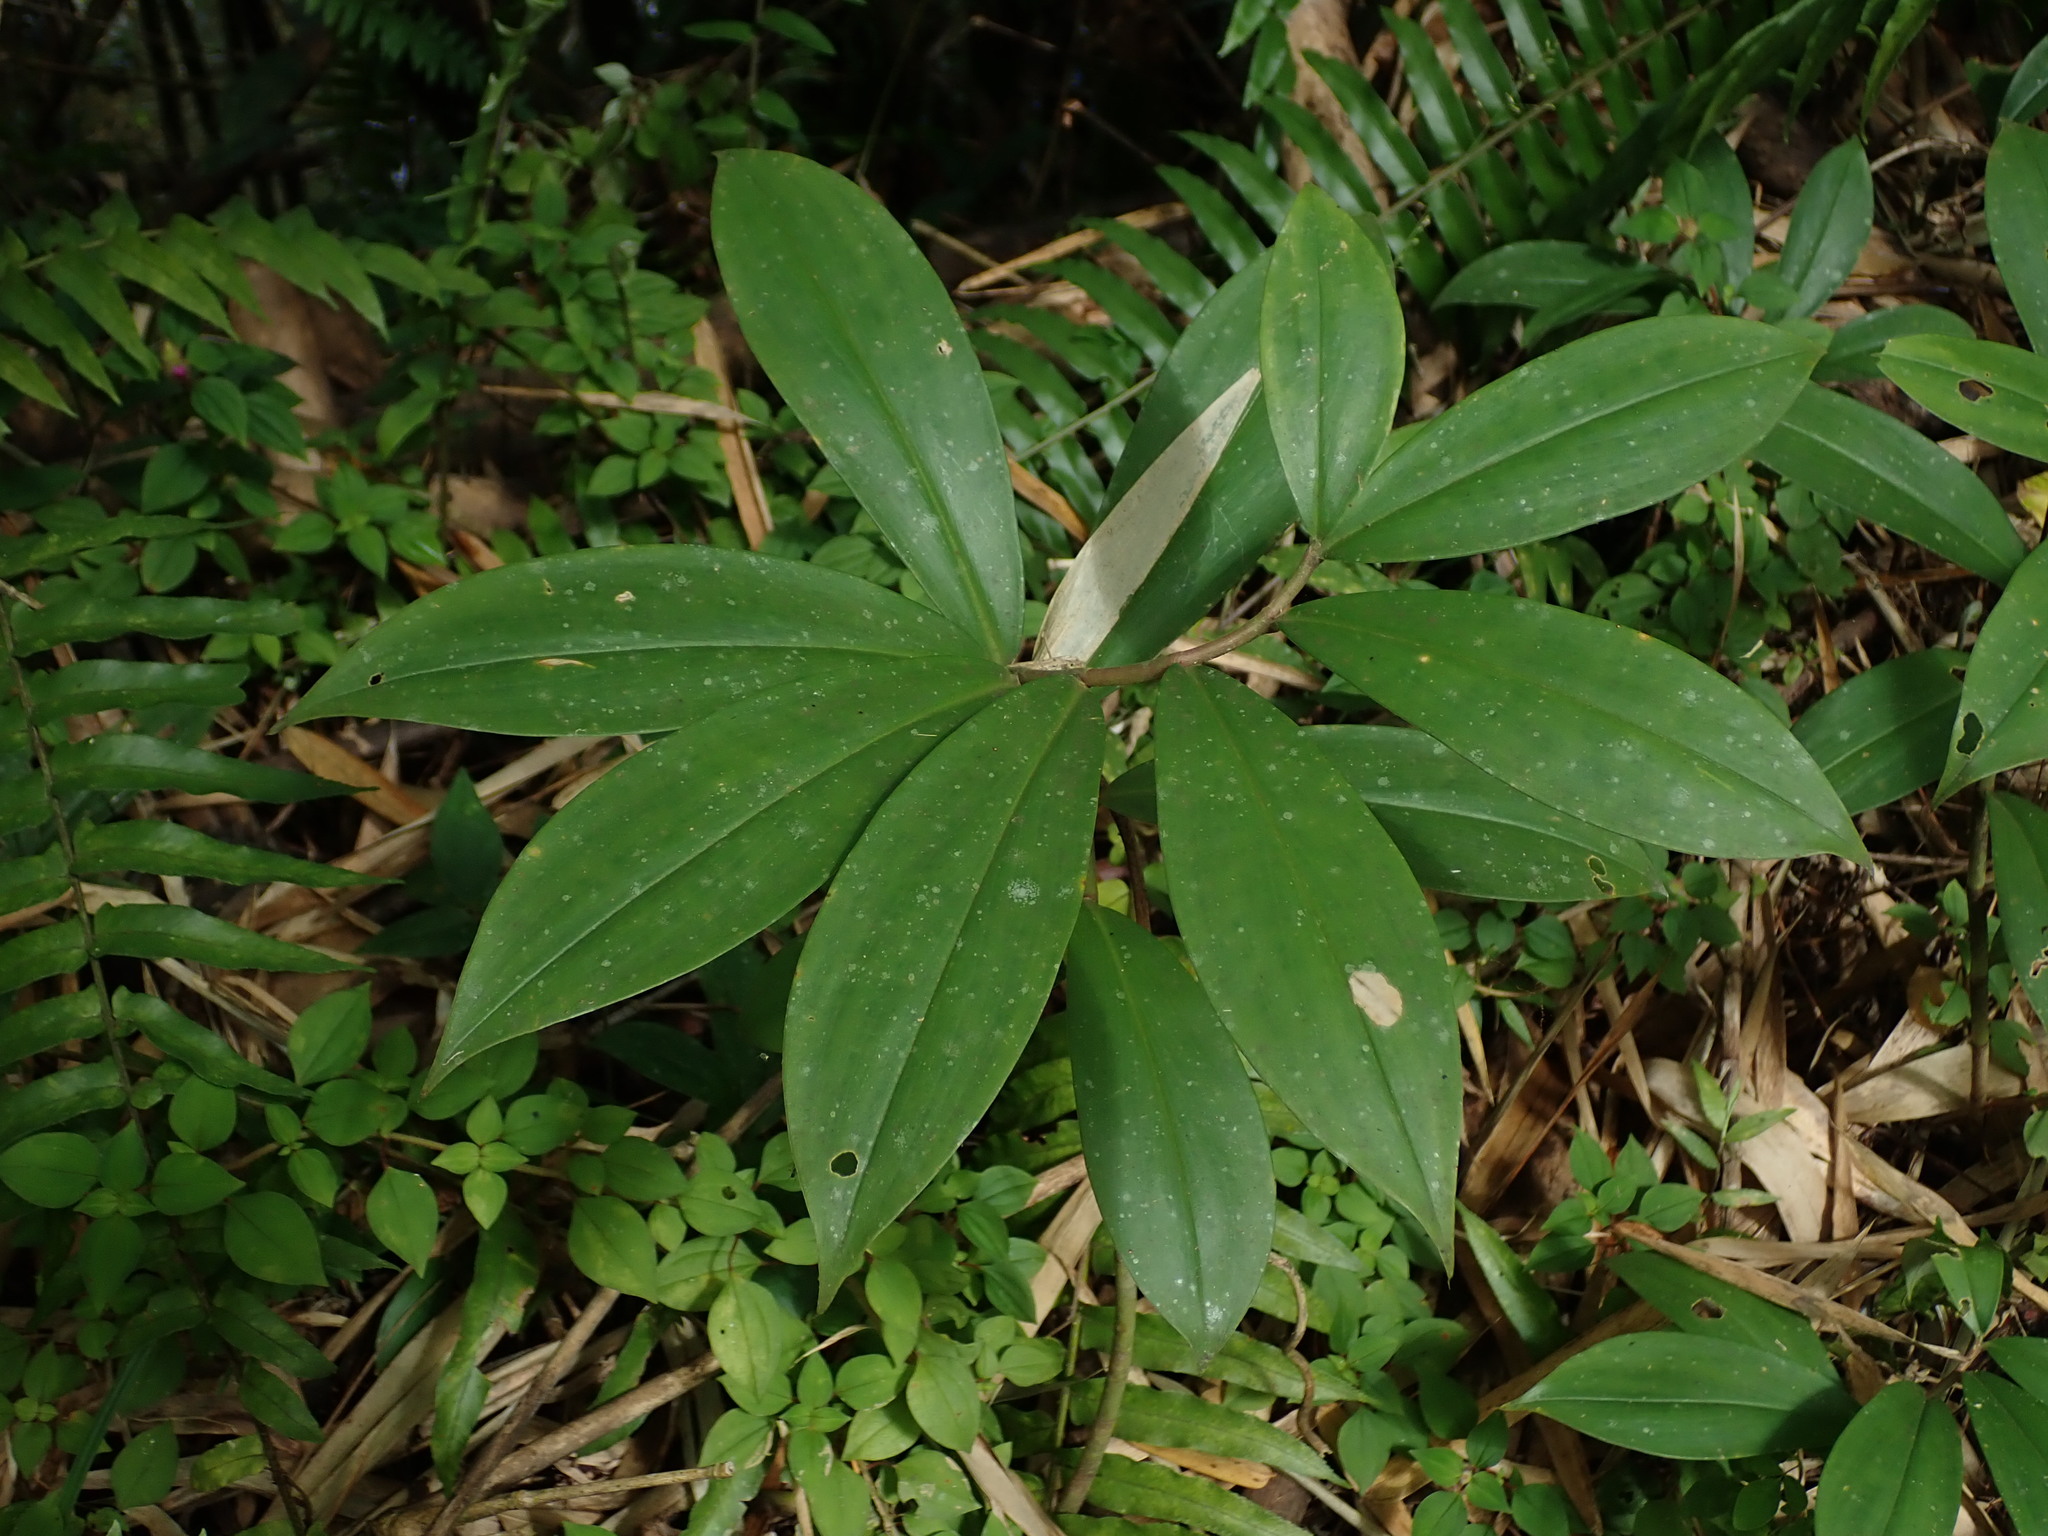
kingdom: Plantae
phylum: Tracheophyta
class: Liliopsida
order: Zingiberales
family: Costaceae
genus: Hellenia
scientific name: Hellenia speciosa
